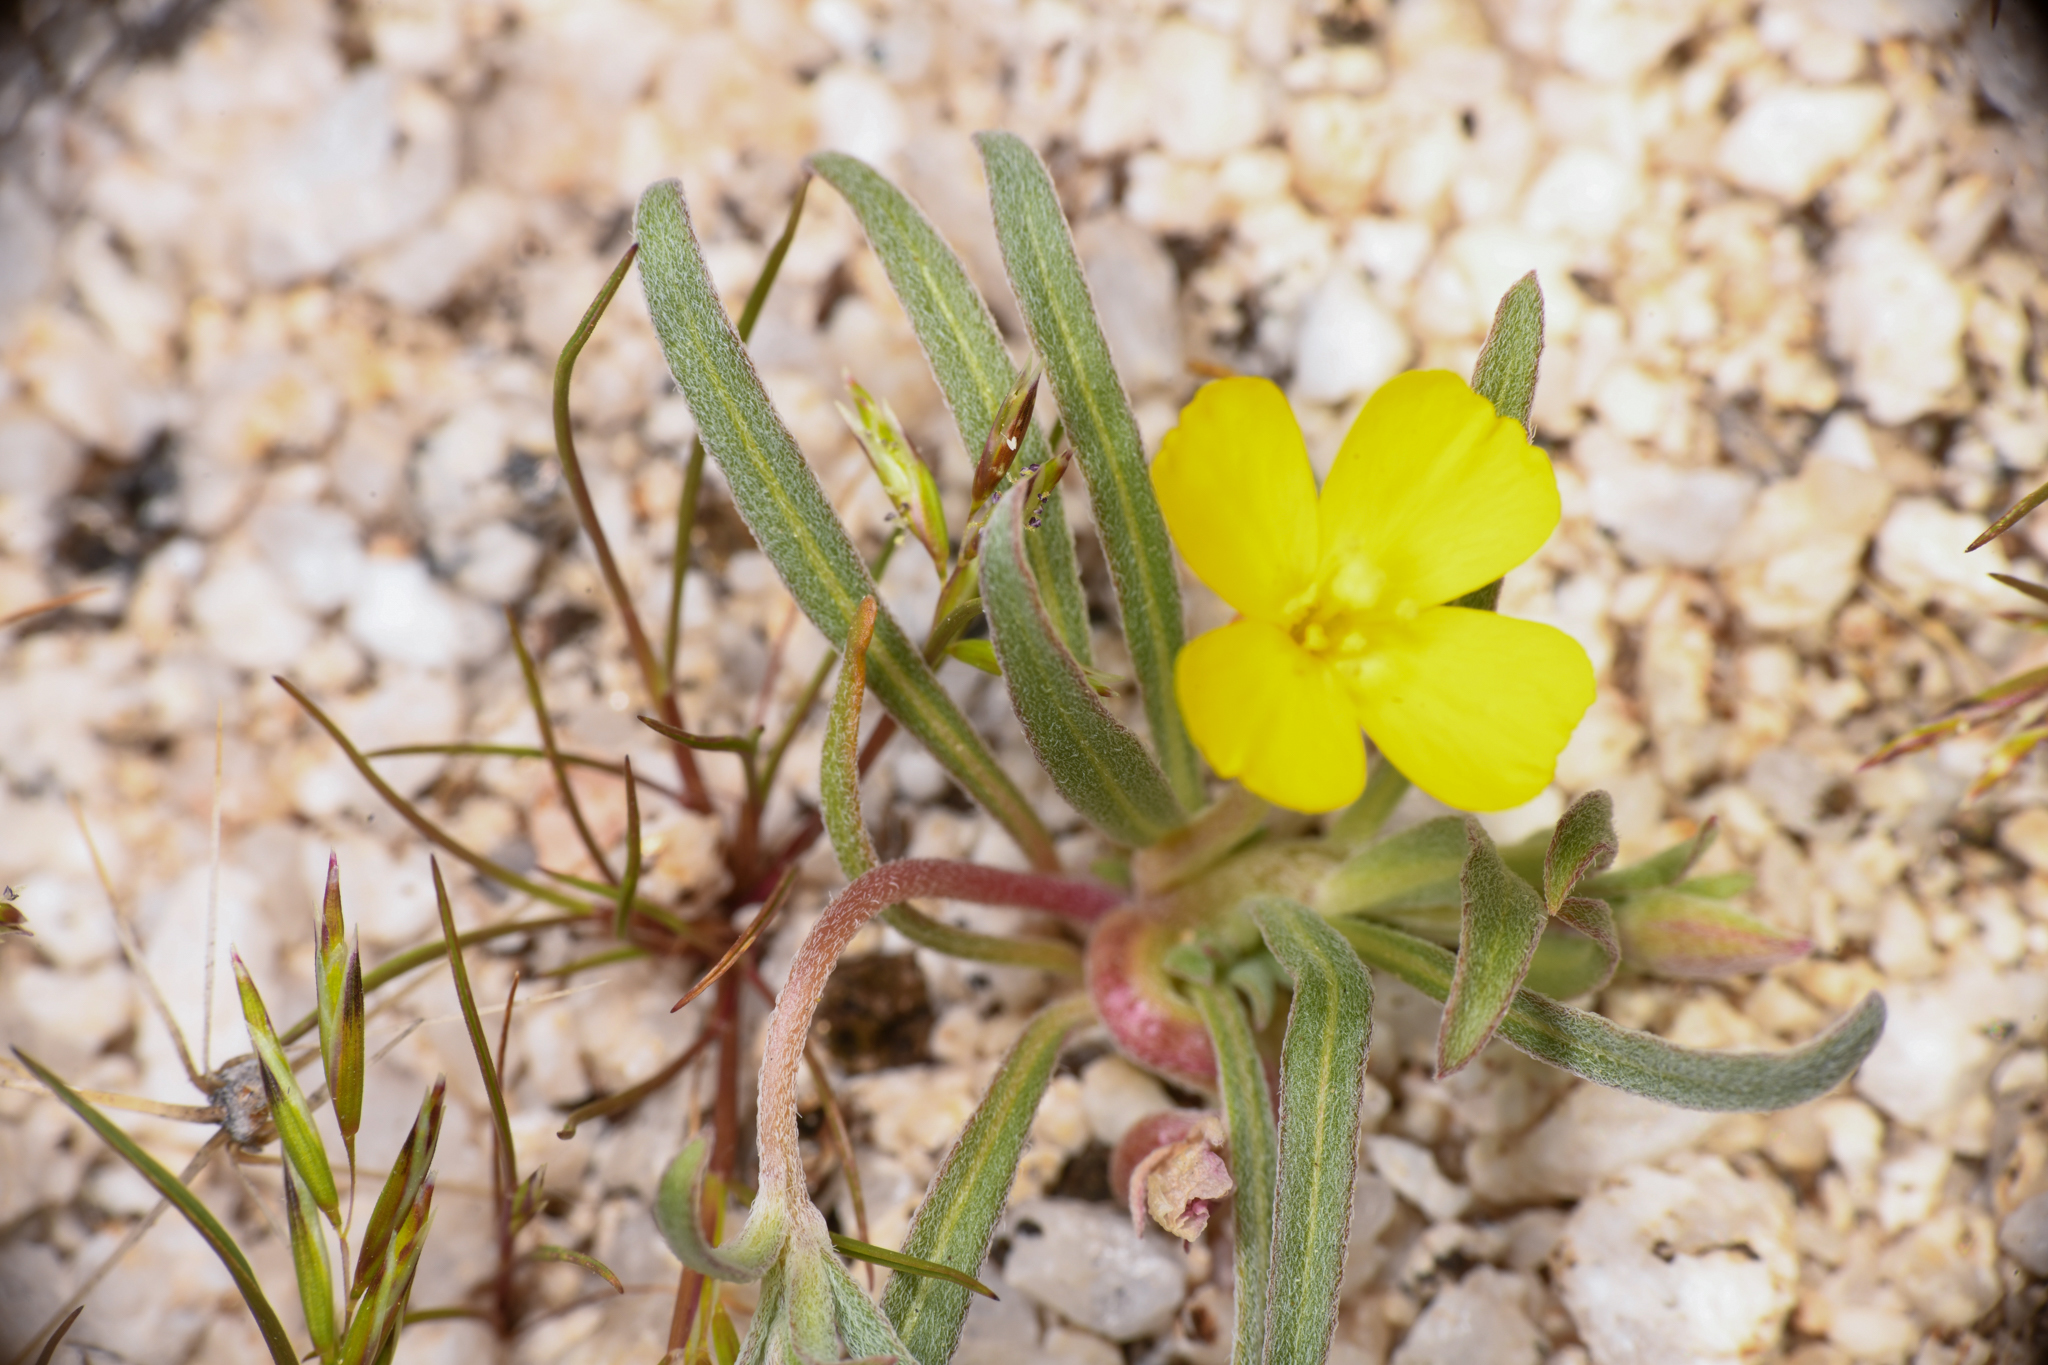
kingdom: Plantae
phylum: Tracheophyta
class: Magnoliopsida
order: Myrtales
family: Onagraceae
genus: Camissoniopsis
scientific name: Camissoniopsis pallida
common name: Paleyellow suncup
